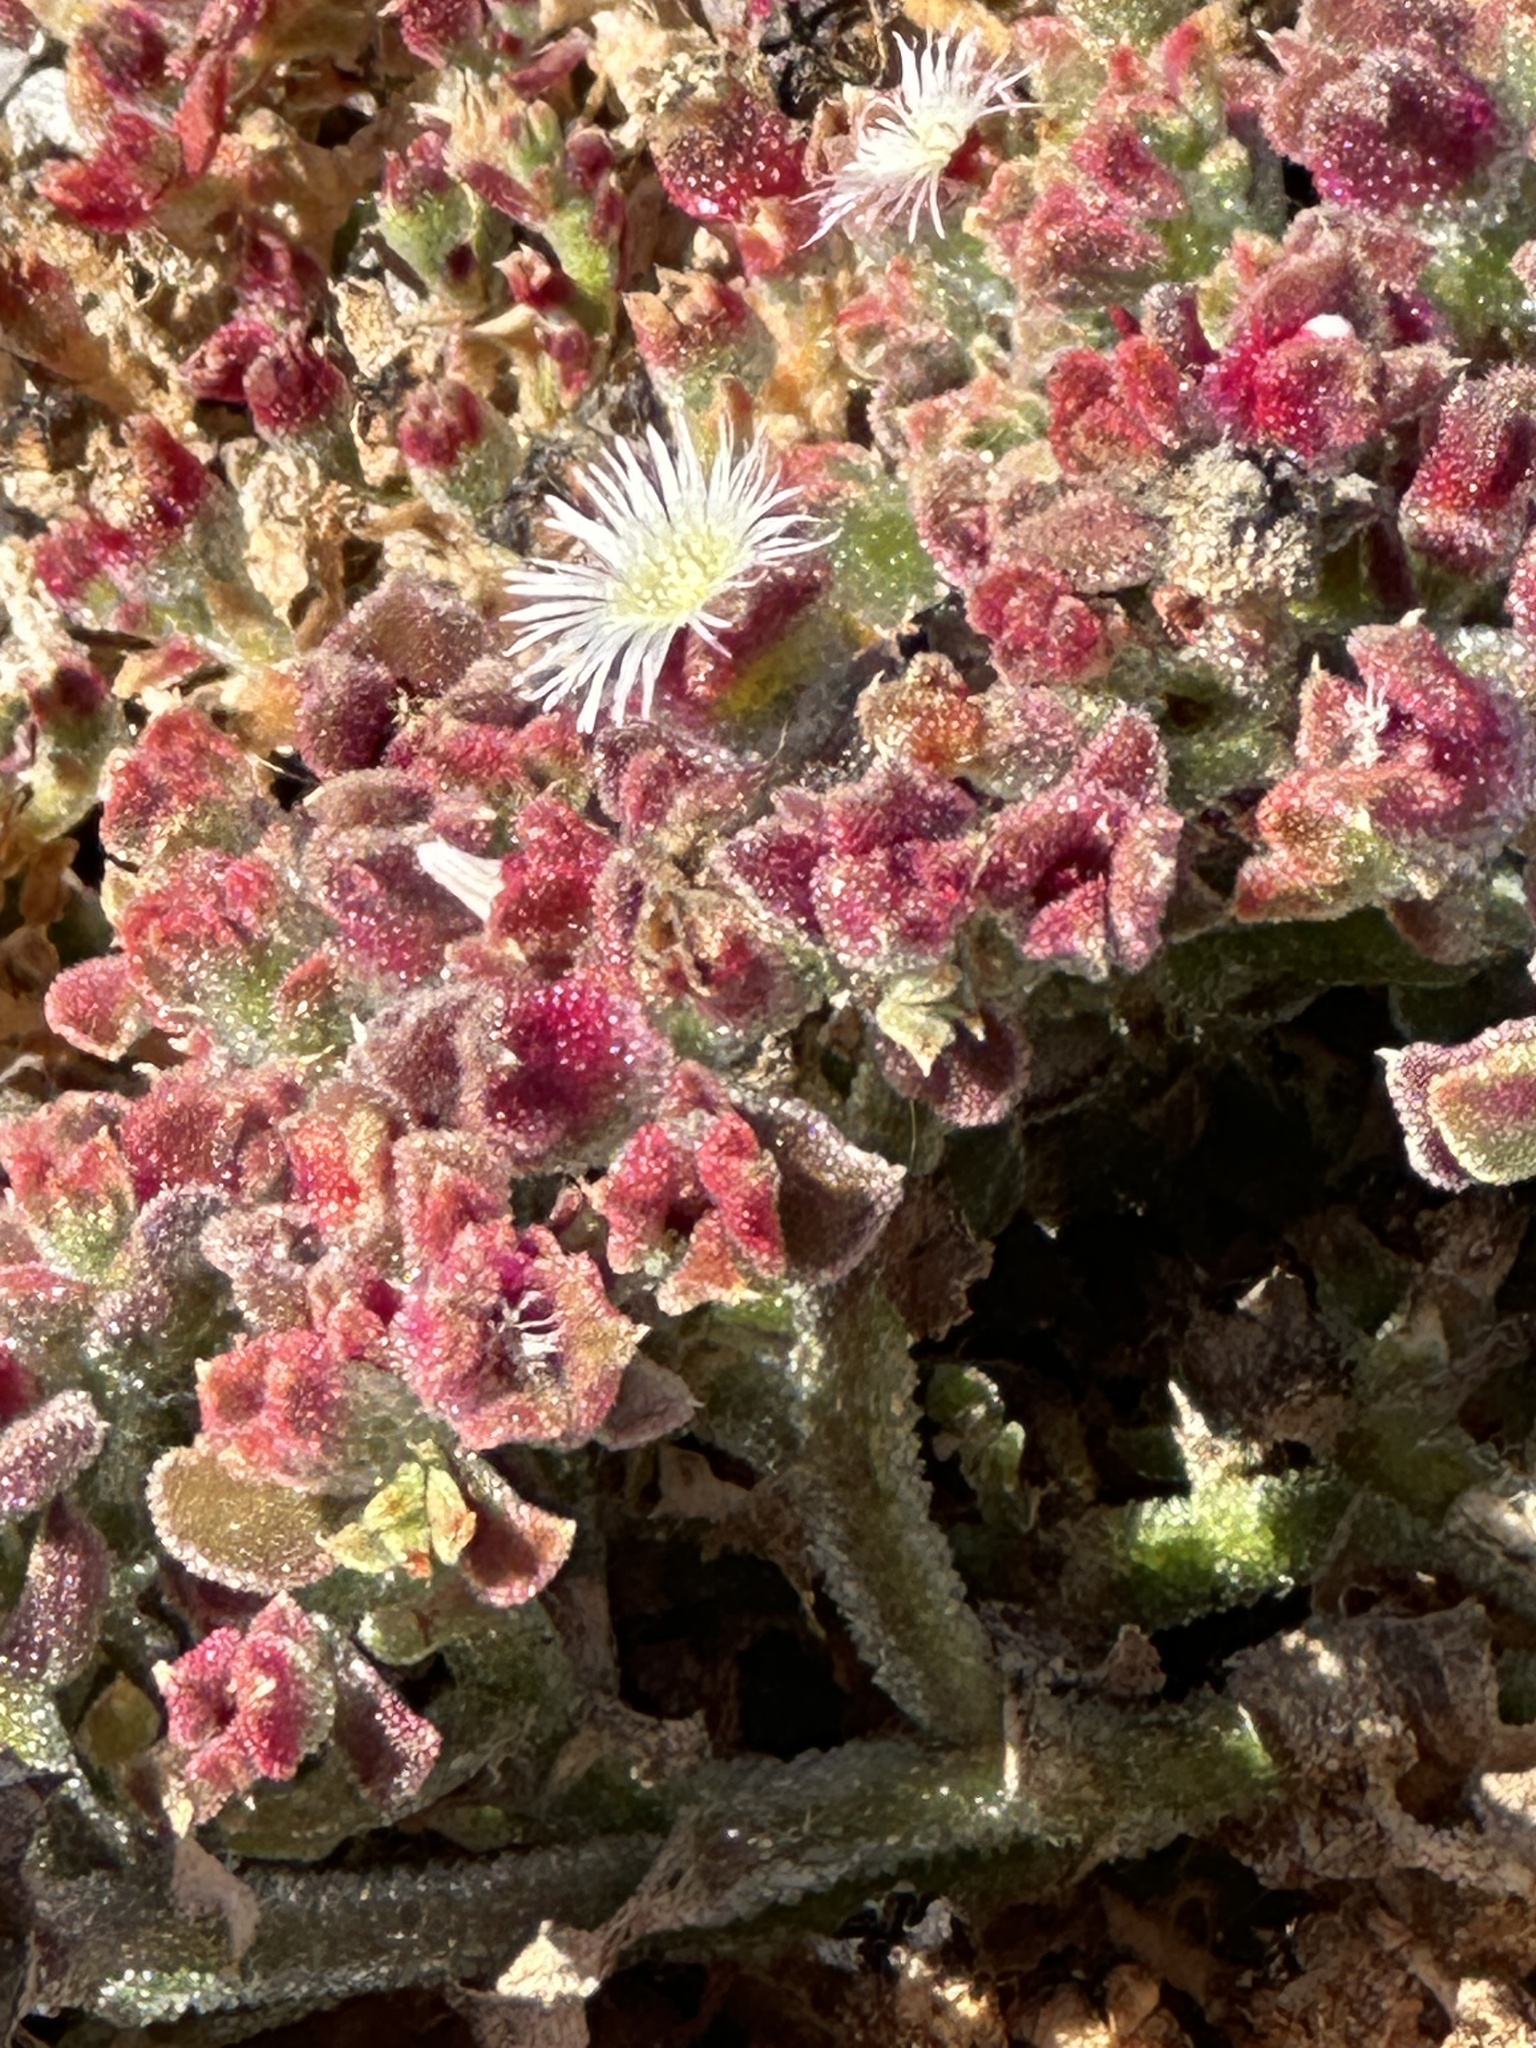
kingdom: Plantae
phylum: Tracheophyta
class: Magnoliopsida
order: Caryophyllales
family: Aizoaceae
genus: Mesembryanthemum
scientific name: Mesembryanthemum crystallinum
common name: Common iceplant
